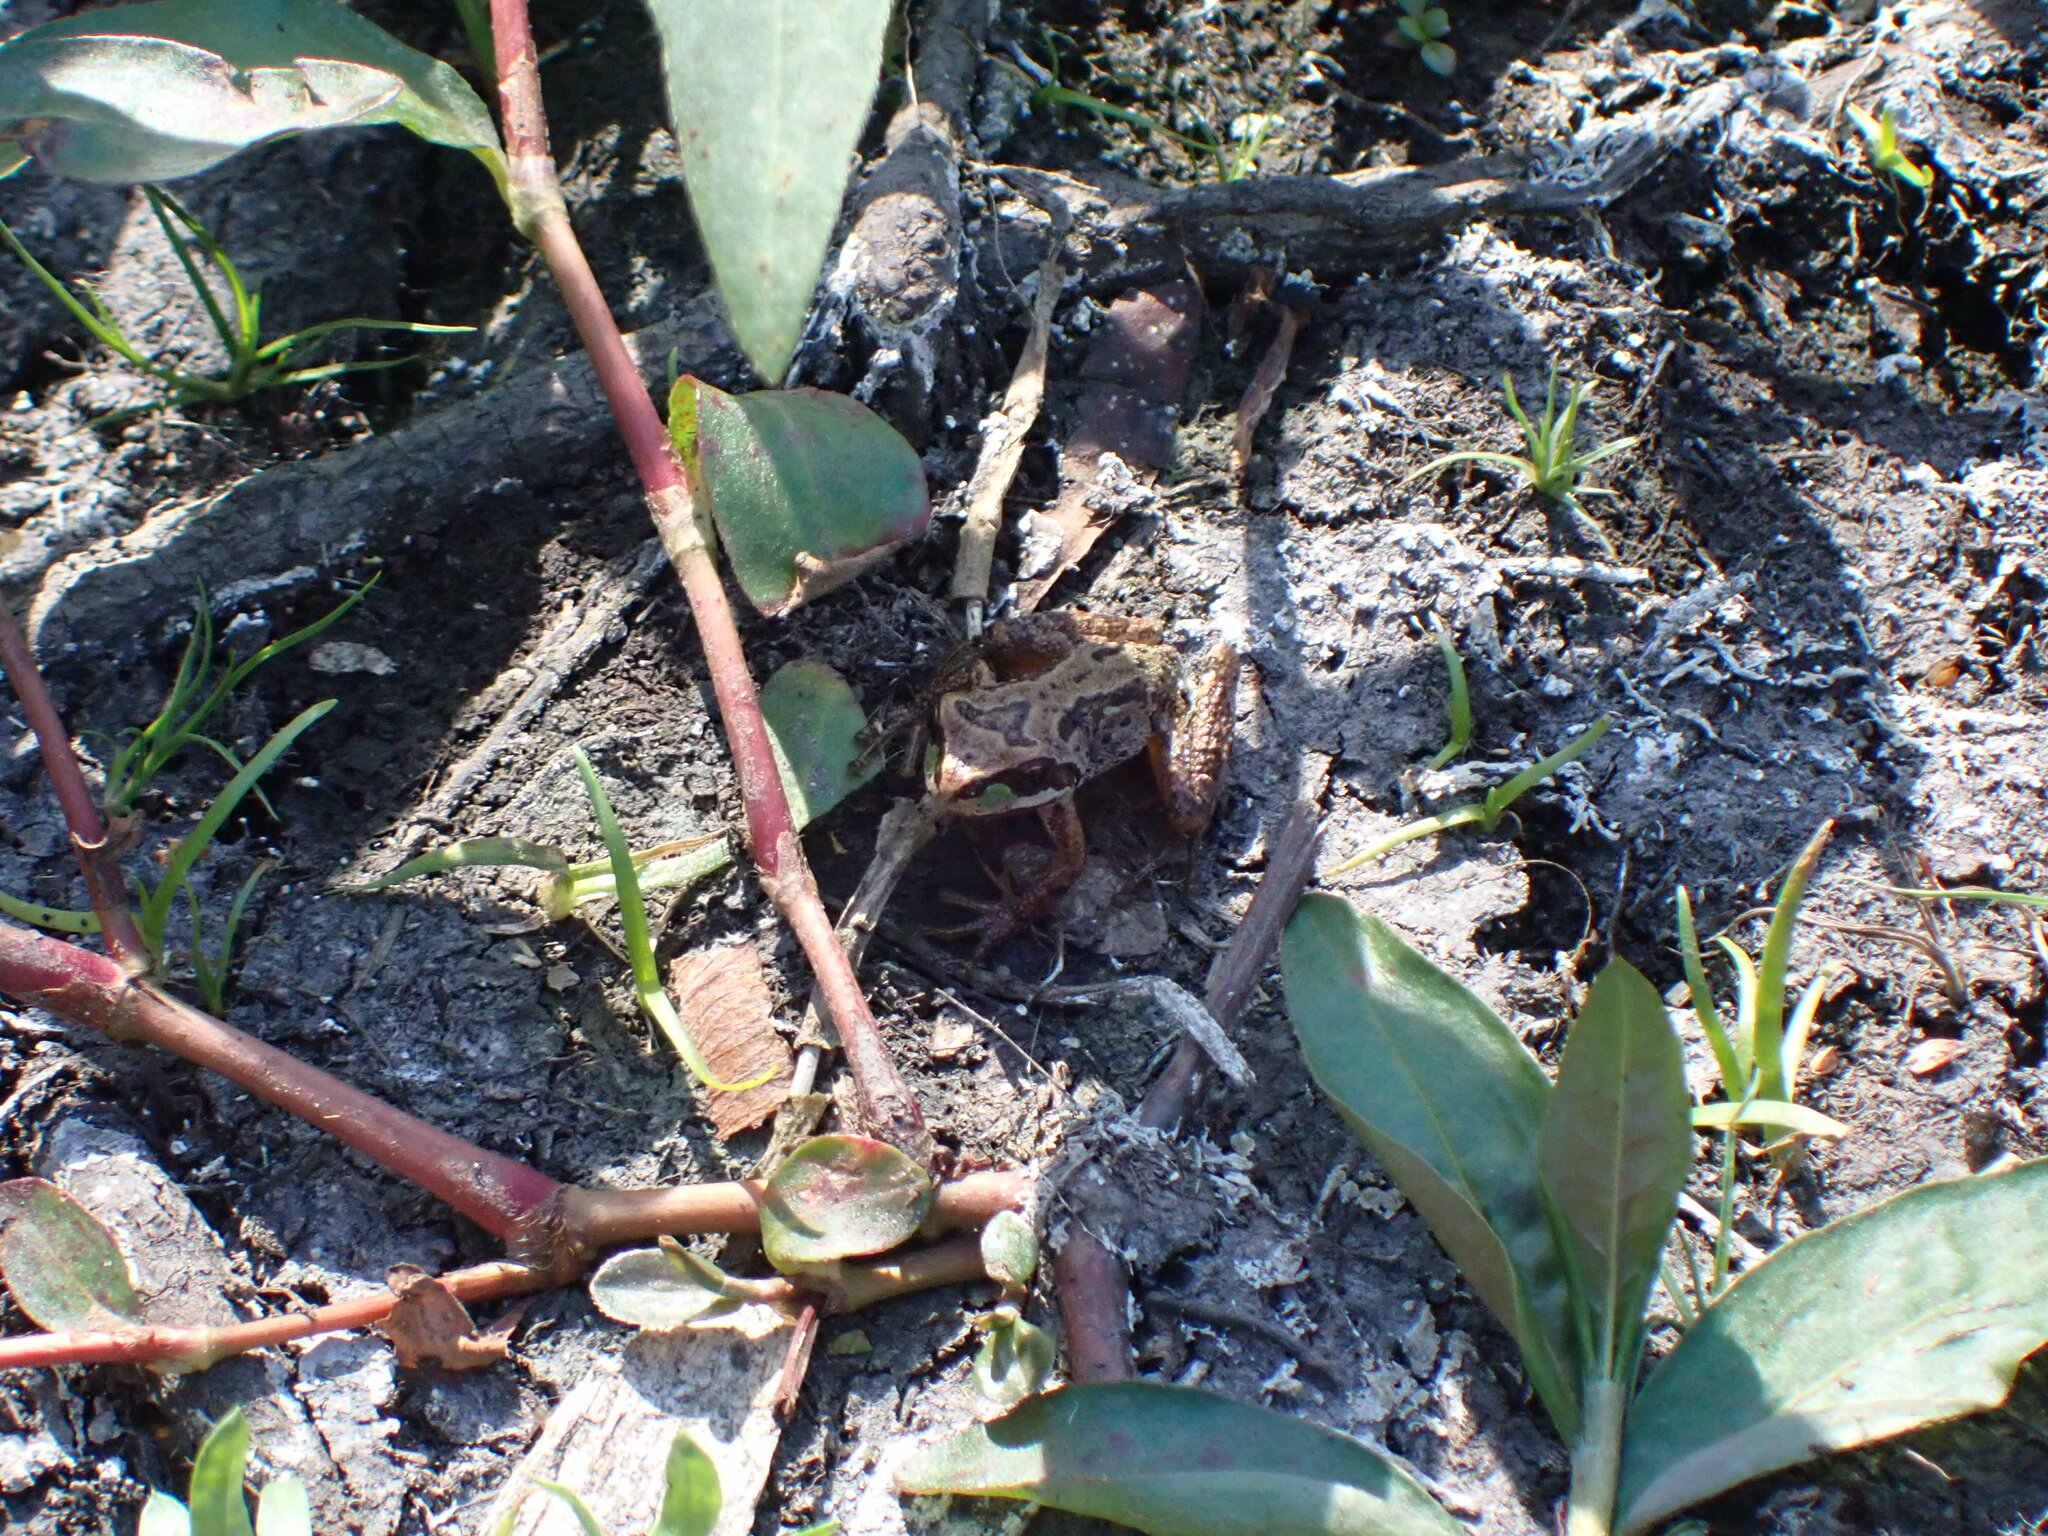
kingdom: Animalia
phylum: Chordata
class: Amphibia
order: Anura
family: Hylidae
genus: Pseudacris
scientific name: Pseudacris regilla
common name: Pacific chorus frog
